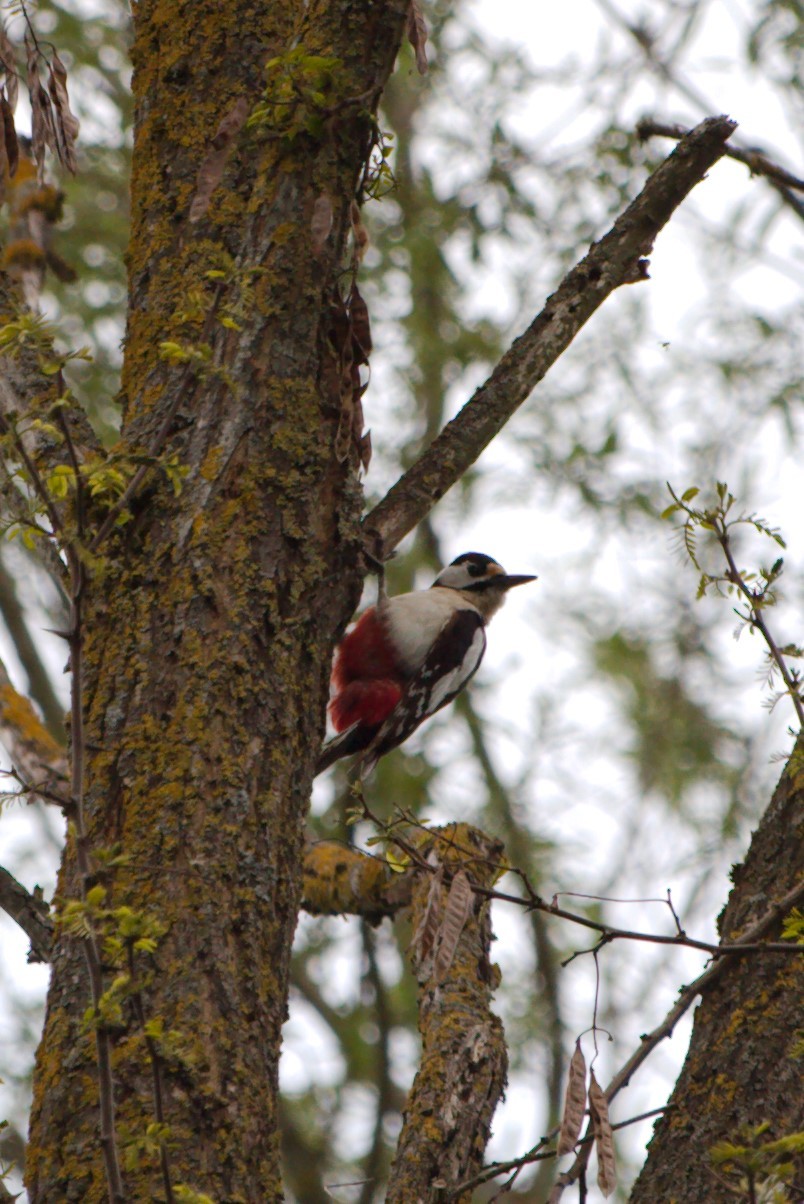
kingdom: Animalia
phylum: Chordata
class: Aves
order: Piciformes
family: Picidae
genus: Dendrocopos
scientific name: Dendrocopos major
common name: Great spotted woodpecker
